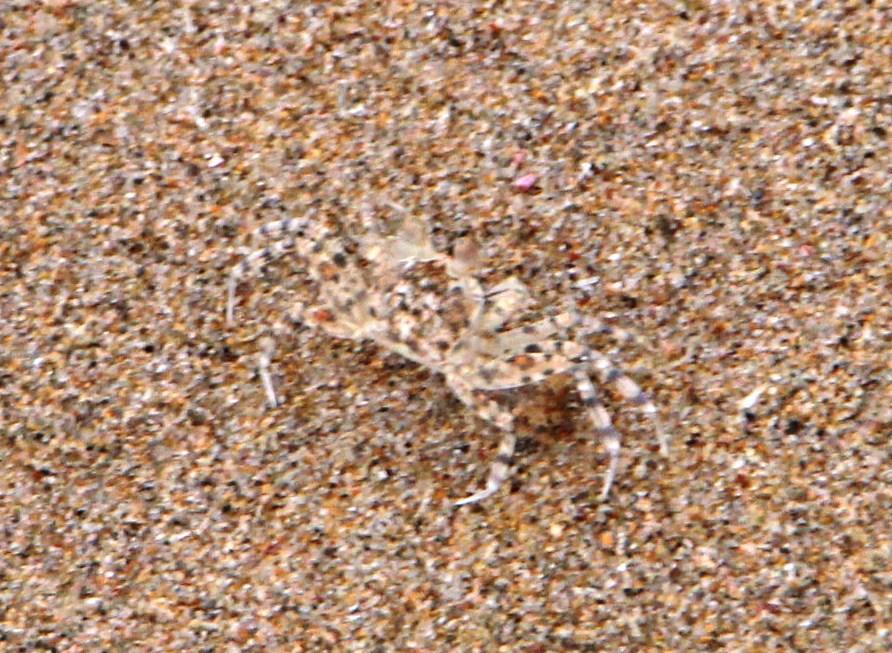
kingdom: Animalia
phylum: Arthropoda
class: Malacostraca
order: Decapoda
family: Ocypodidae
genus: Ocypode
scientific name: Ocypode
